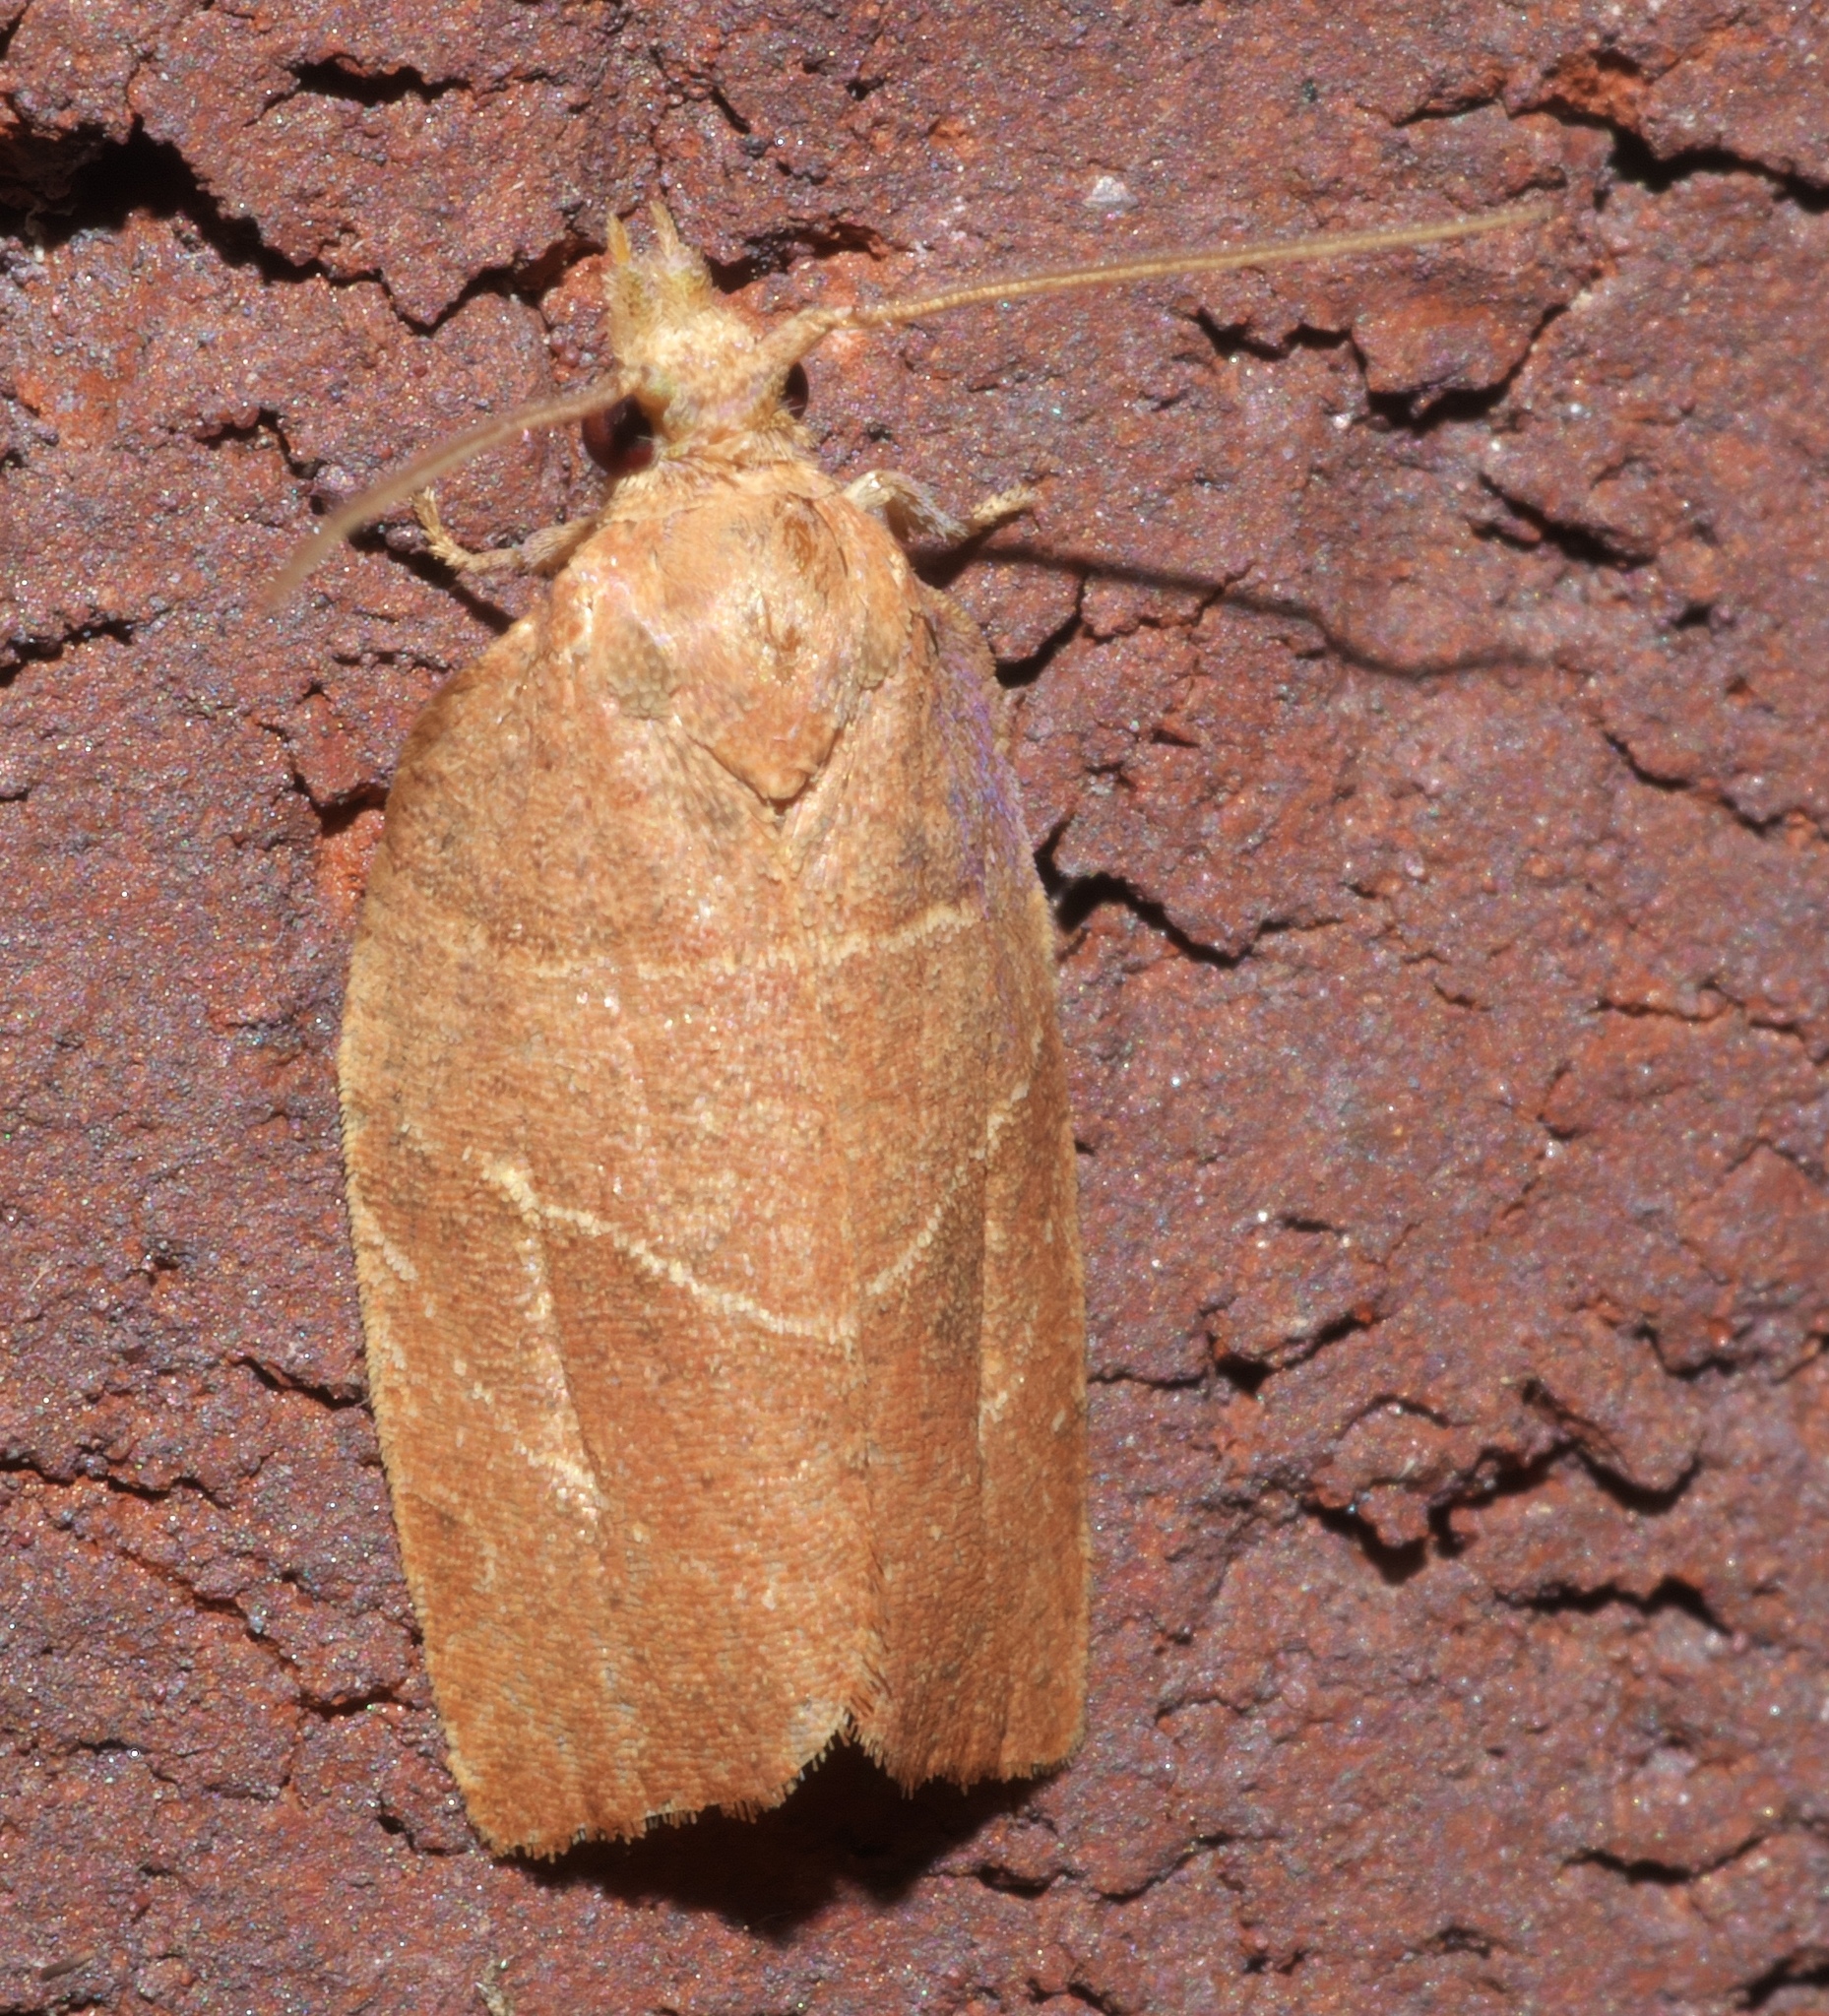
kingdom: Animalia
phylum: Arthropoda
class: Insecta
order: Lepidoptera
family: Tortricidae
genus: Pandemis
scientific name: Pandemis limitata
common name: Three-lined leafroller moth
